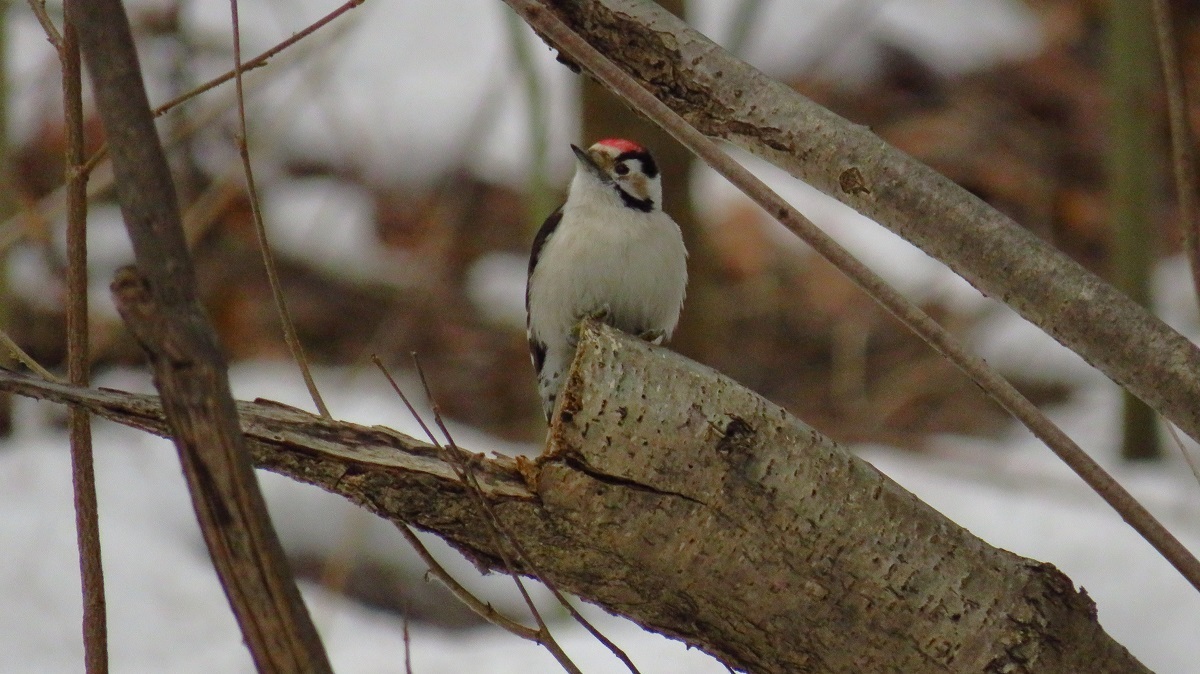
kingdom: Animalia
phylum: Chordata
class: Aves
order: Piciformes
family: Picidae
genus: Dryobates
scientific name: Dryobates minor
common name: Lesser spotted woodpecker
